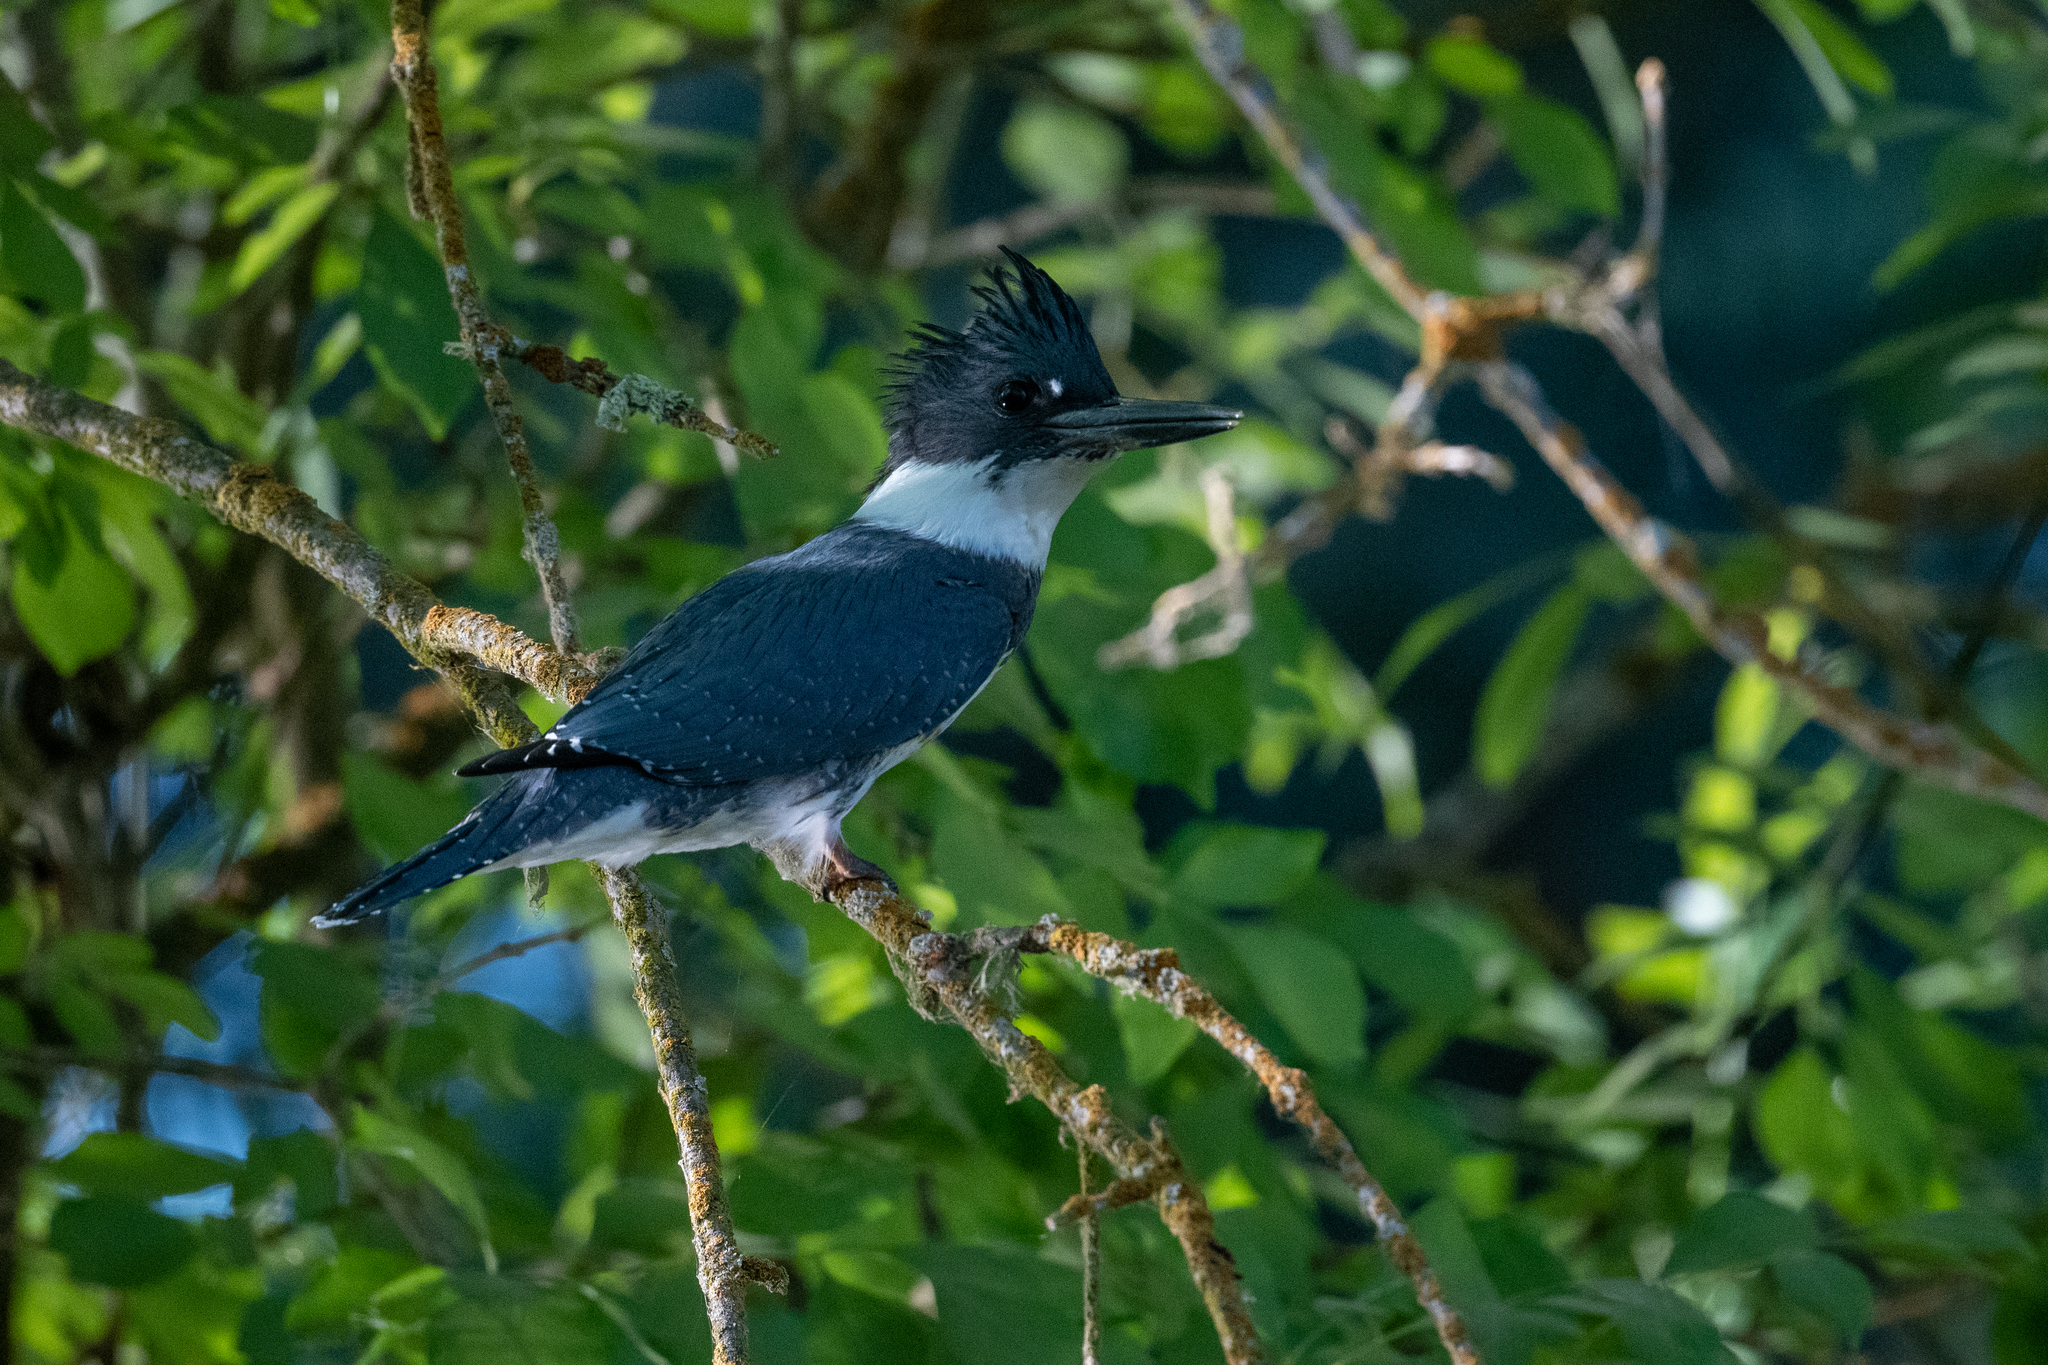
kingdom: Animalia
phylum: Chordata
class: Aves
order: Coraciiformes
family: Alcedinidae
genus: Megaceryle
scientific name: Megaceryle alcyon
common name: Belted kingfisher
